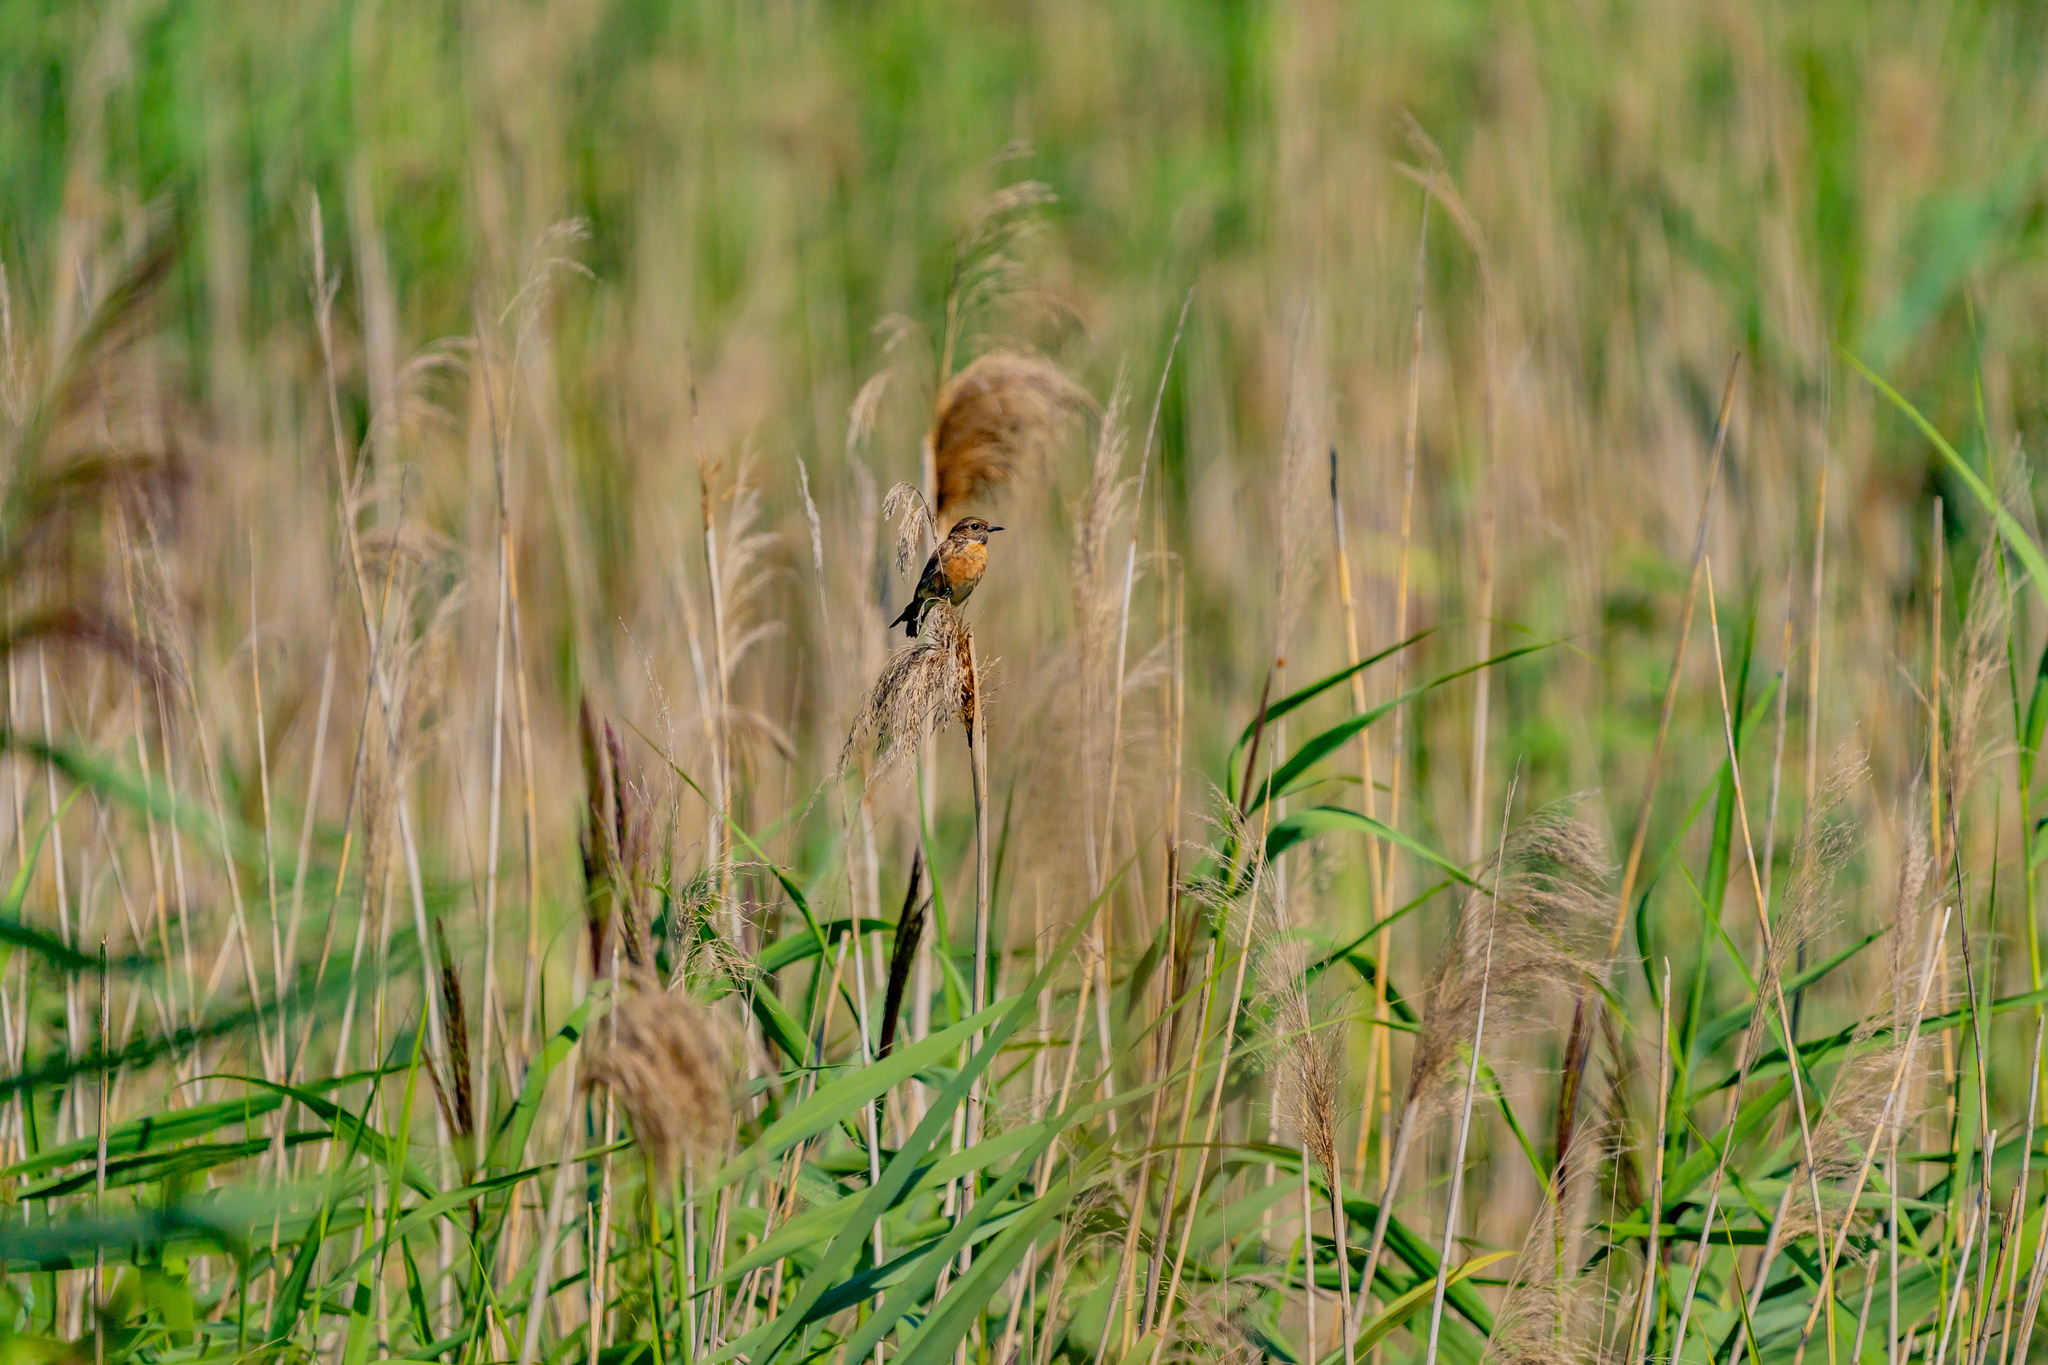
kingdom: Animalia
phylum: Chordata
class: Aves
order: Passeriformes
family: Muscicapidae
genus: Saxicola
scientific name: Saxicola rubicola
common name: European stonechat
